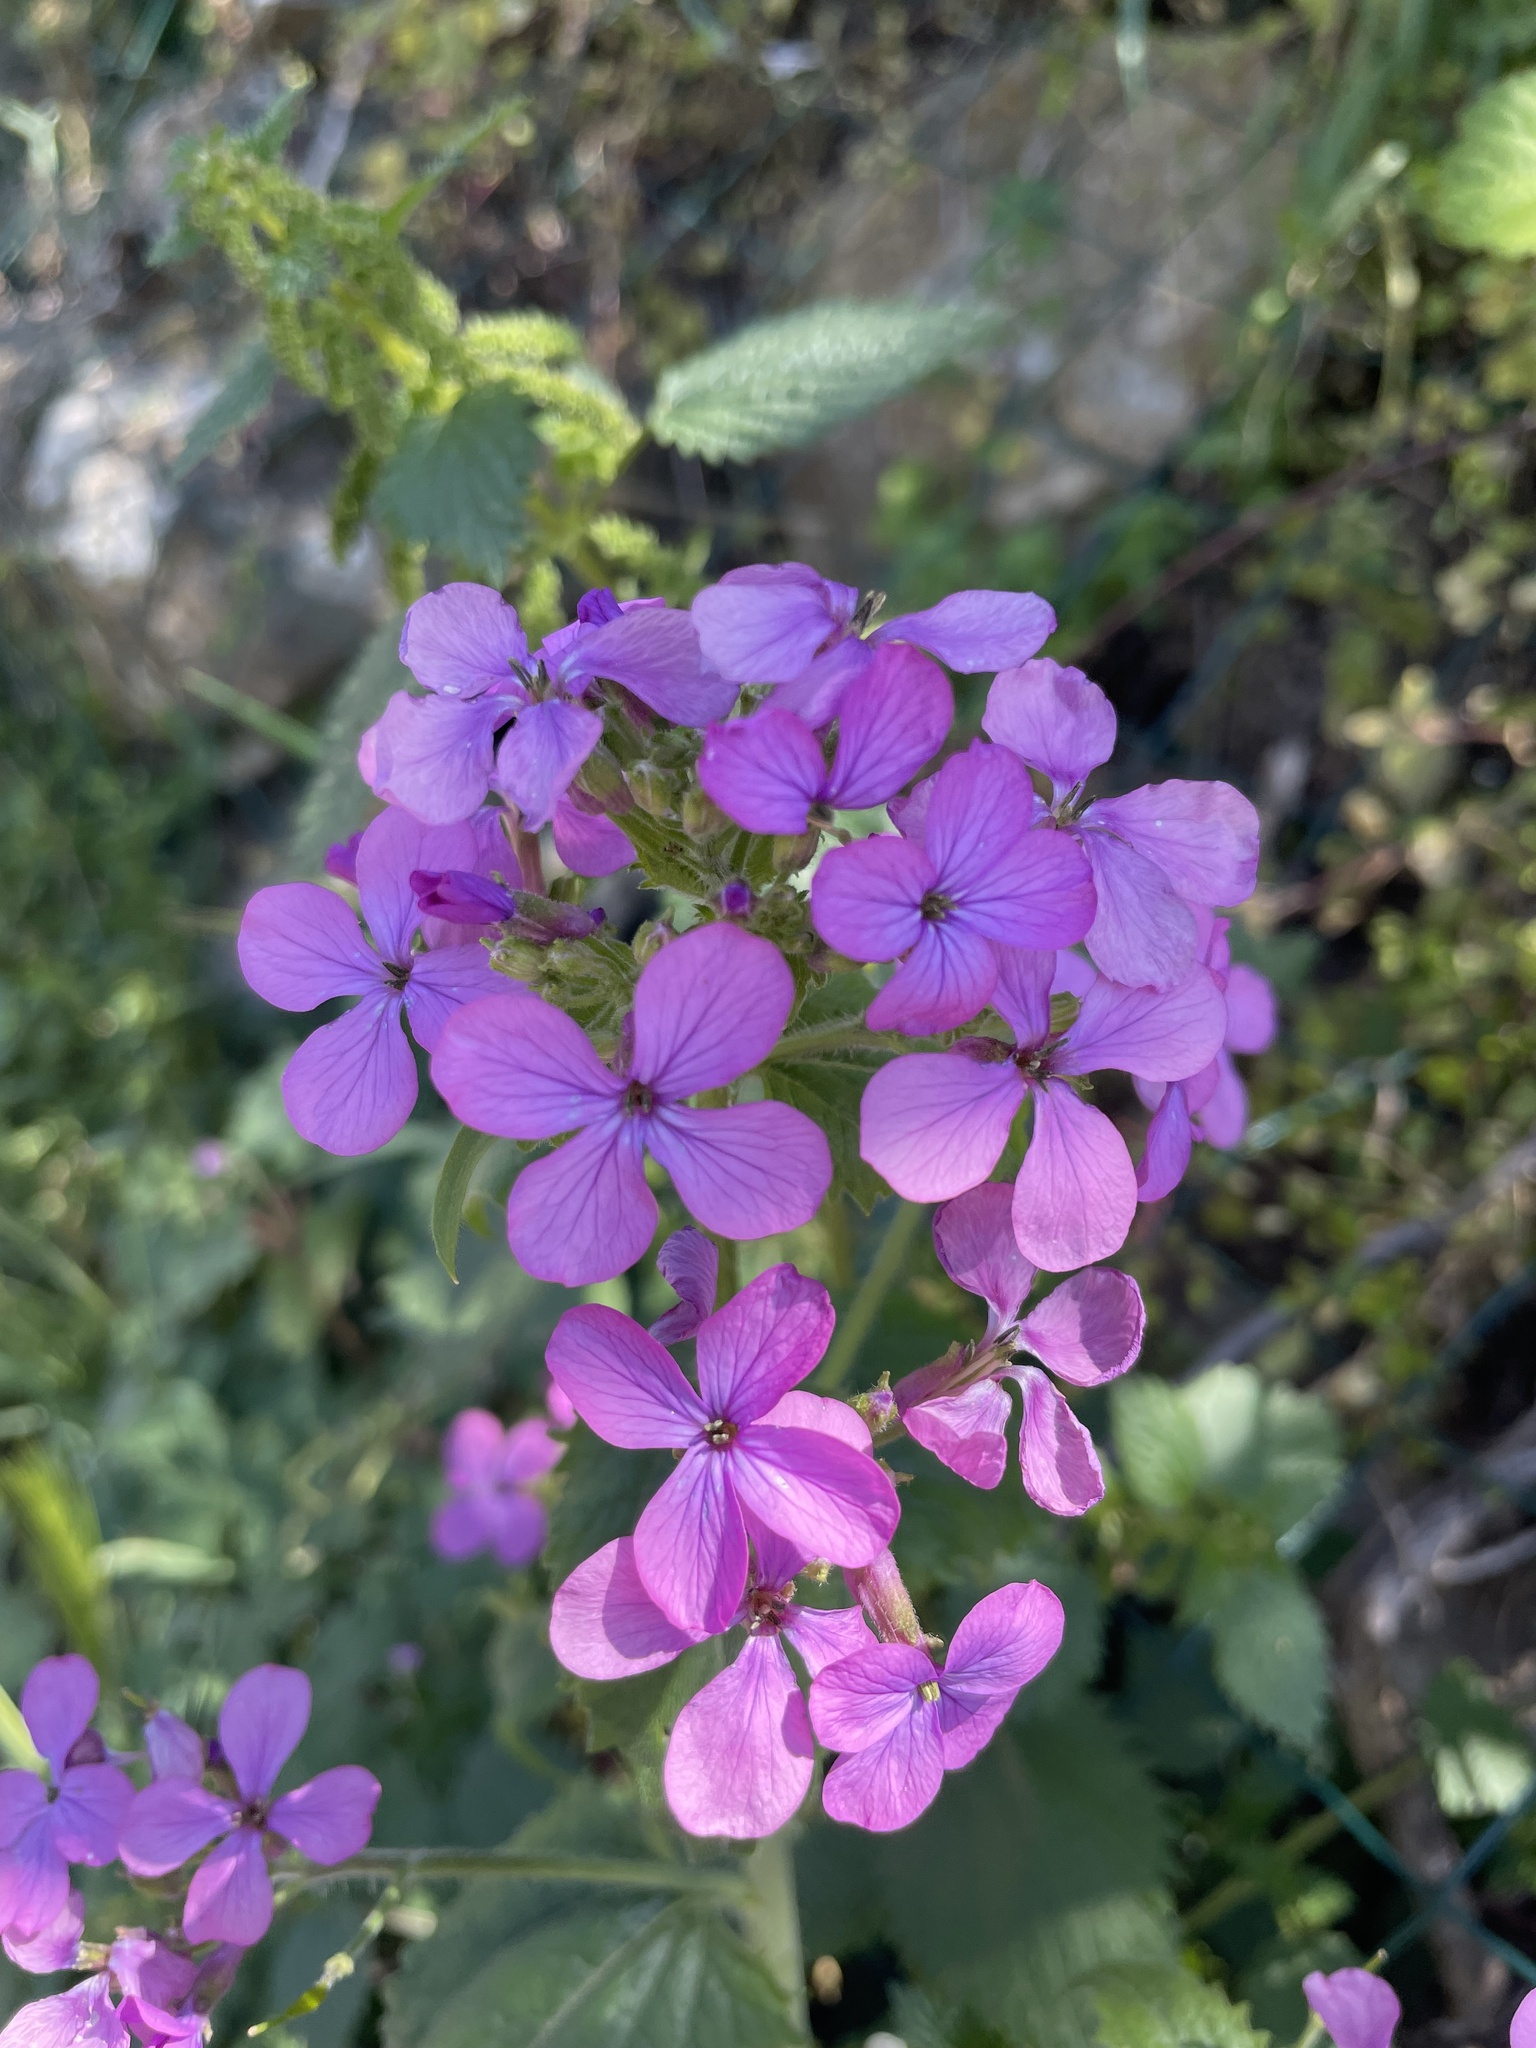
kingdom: Plantae
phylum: Tracheophyta
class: Magnoliopsida
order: Brassicales
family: Brassicaceae
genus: Lunaria
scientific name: Lunaria annua
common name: Honesty
